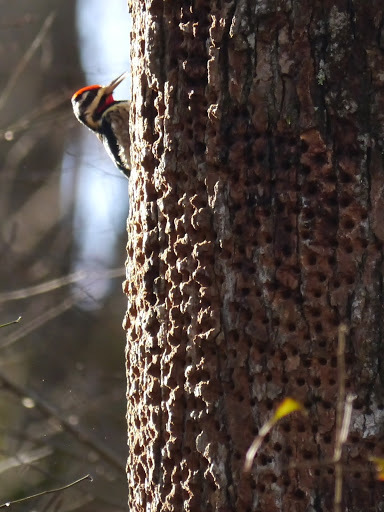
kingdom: Animalia
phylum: Chordata
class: Aves
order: Piciformes
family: Picidae
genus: Sphyrapicus
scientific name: Sphyrapicus varius
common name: Yellow-bellied sapsucker
